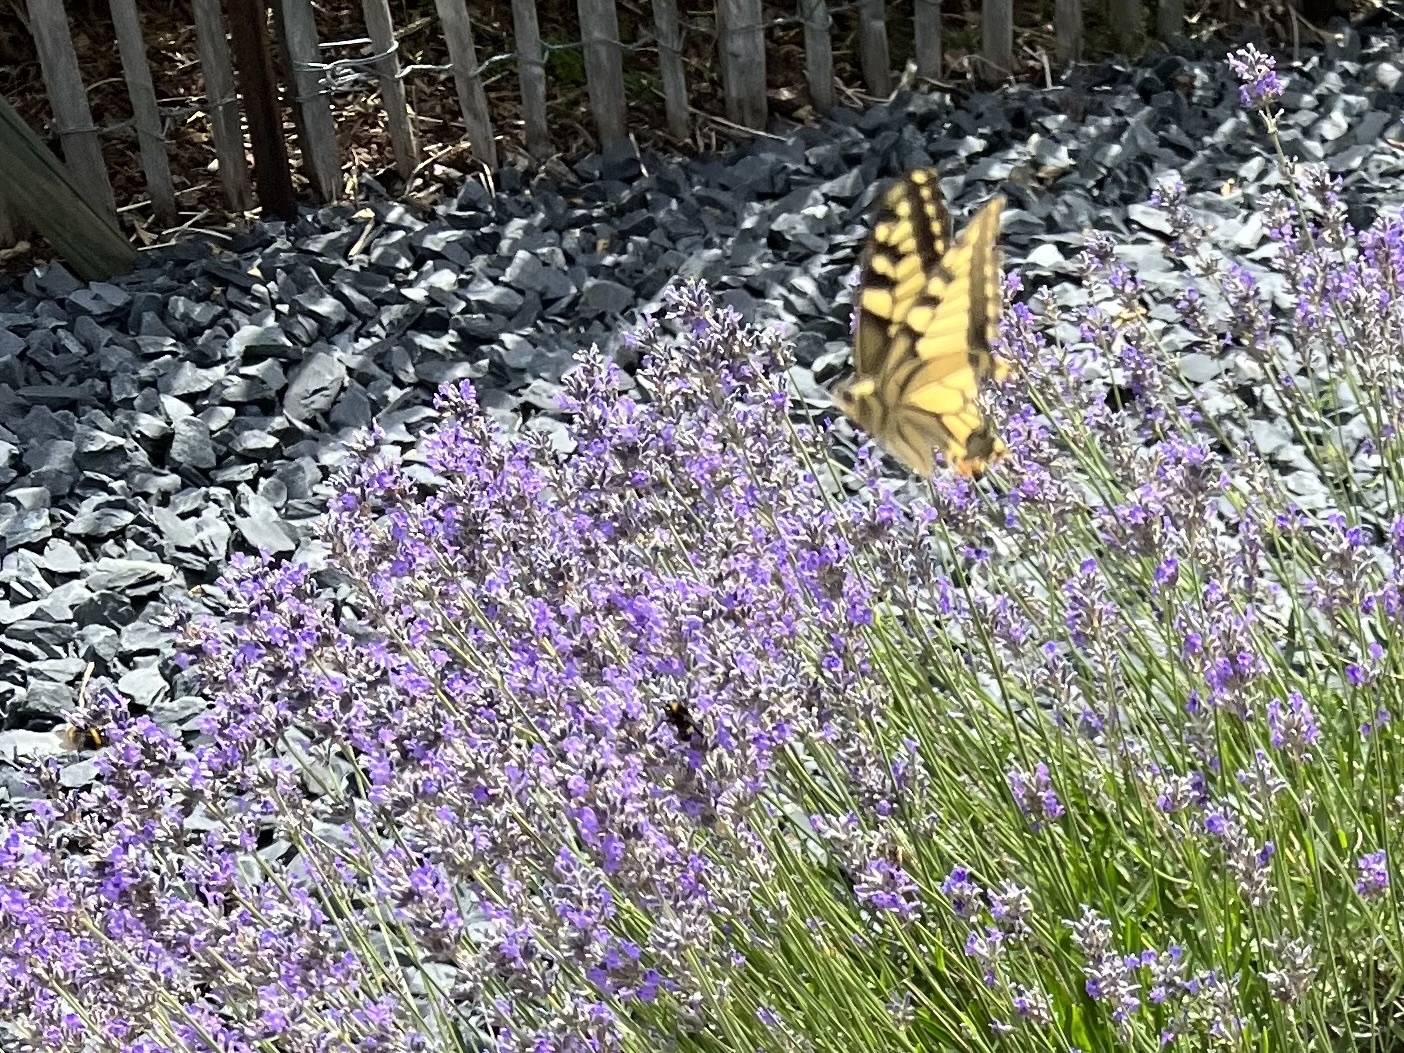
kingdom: Animalia
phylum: Arthropoda
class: Insecta
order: Lepidoptera
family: Papilionidae
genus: Papilio
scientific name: Papilio machaon
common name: Swallowtail
